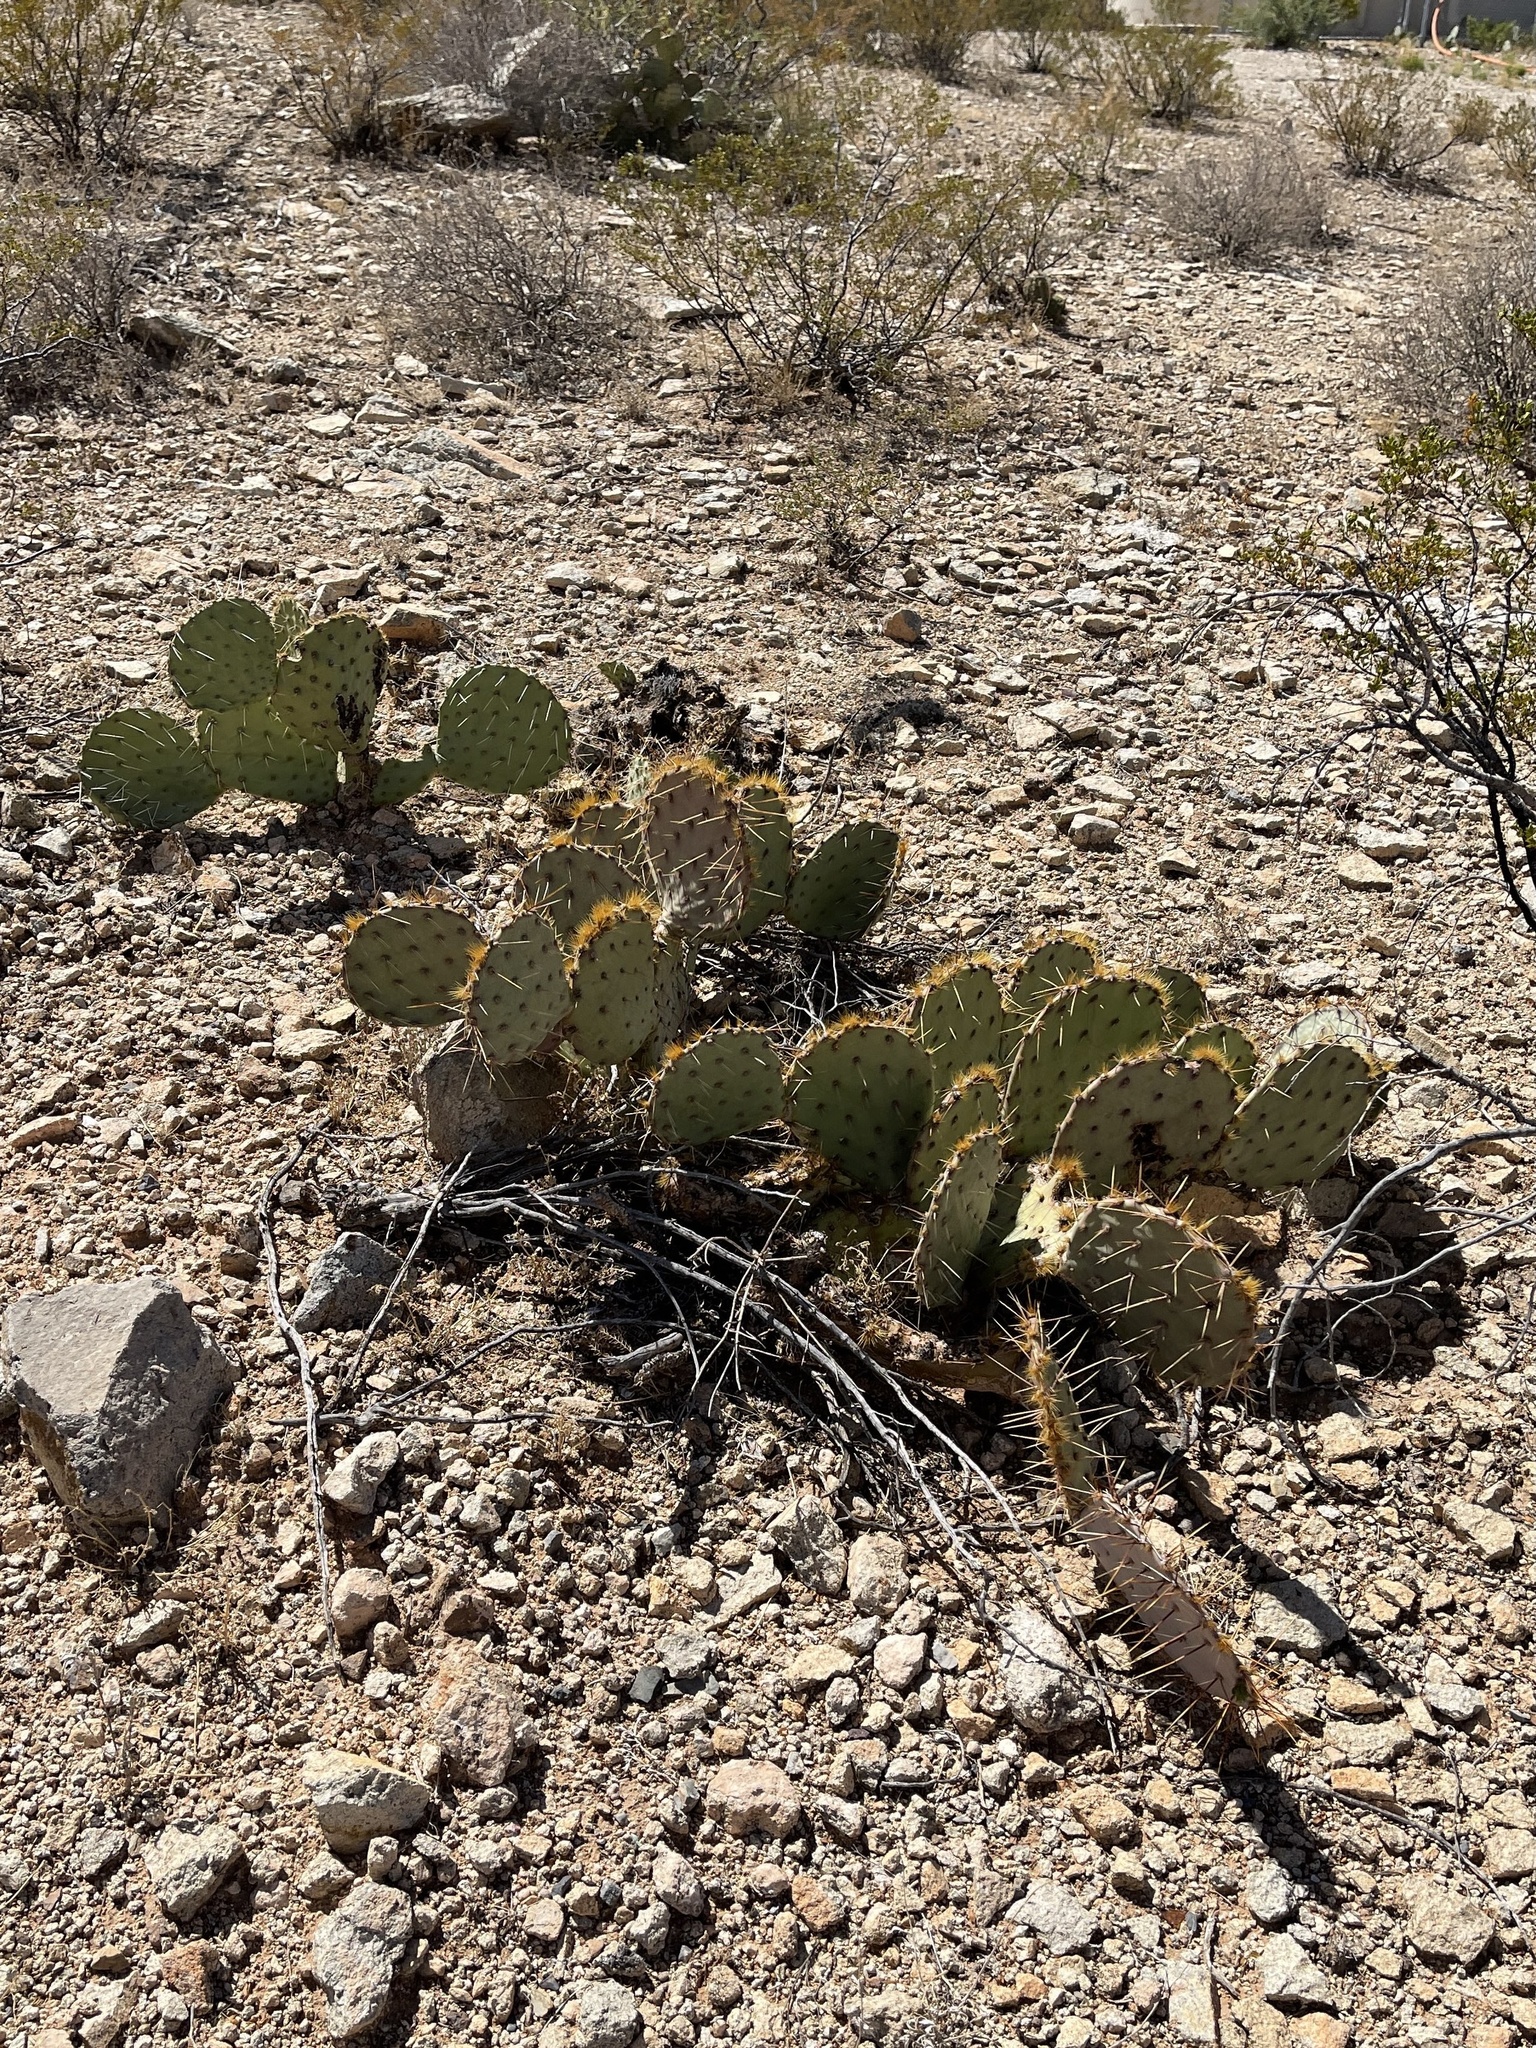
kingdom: Plantae
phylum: Tracheophyta
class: Magnoliopsida
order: Caryophyllales
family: Cactaceae
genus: Opuntia
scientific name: Opuntia engelmannii
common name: Cactus-apple
